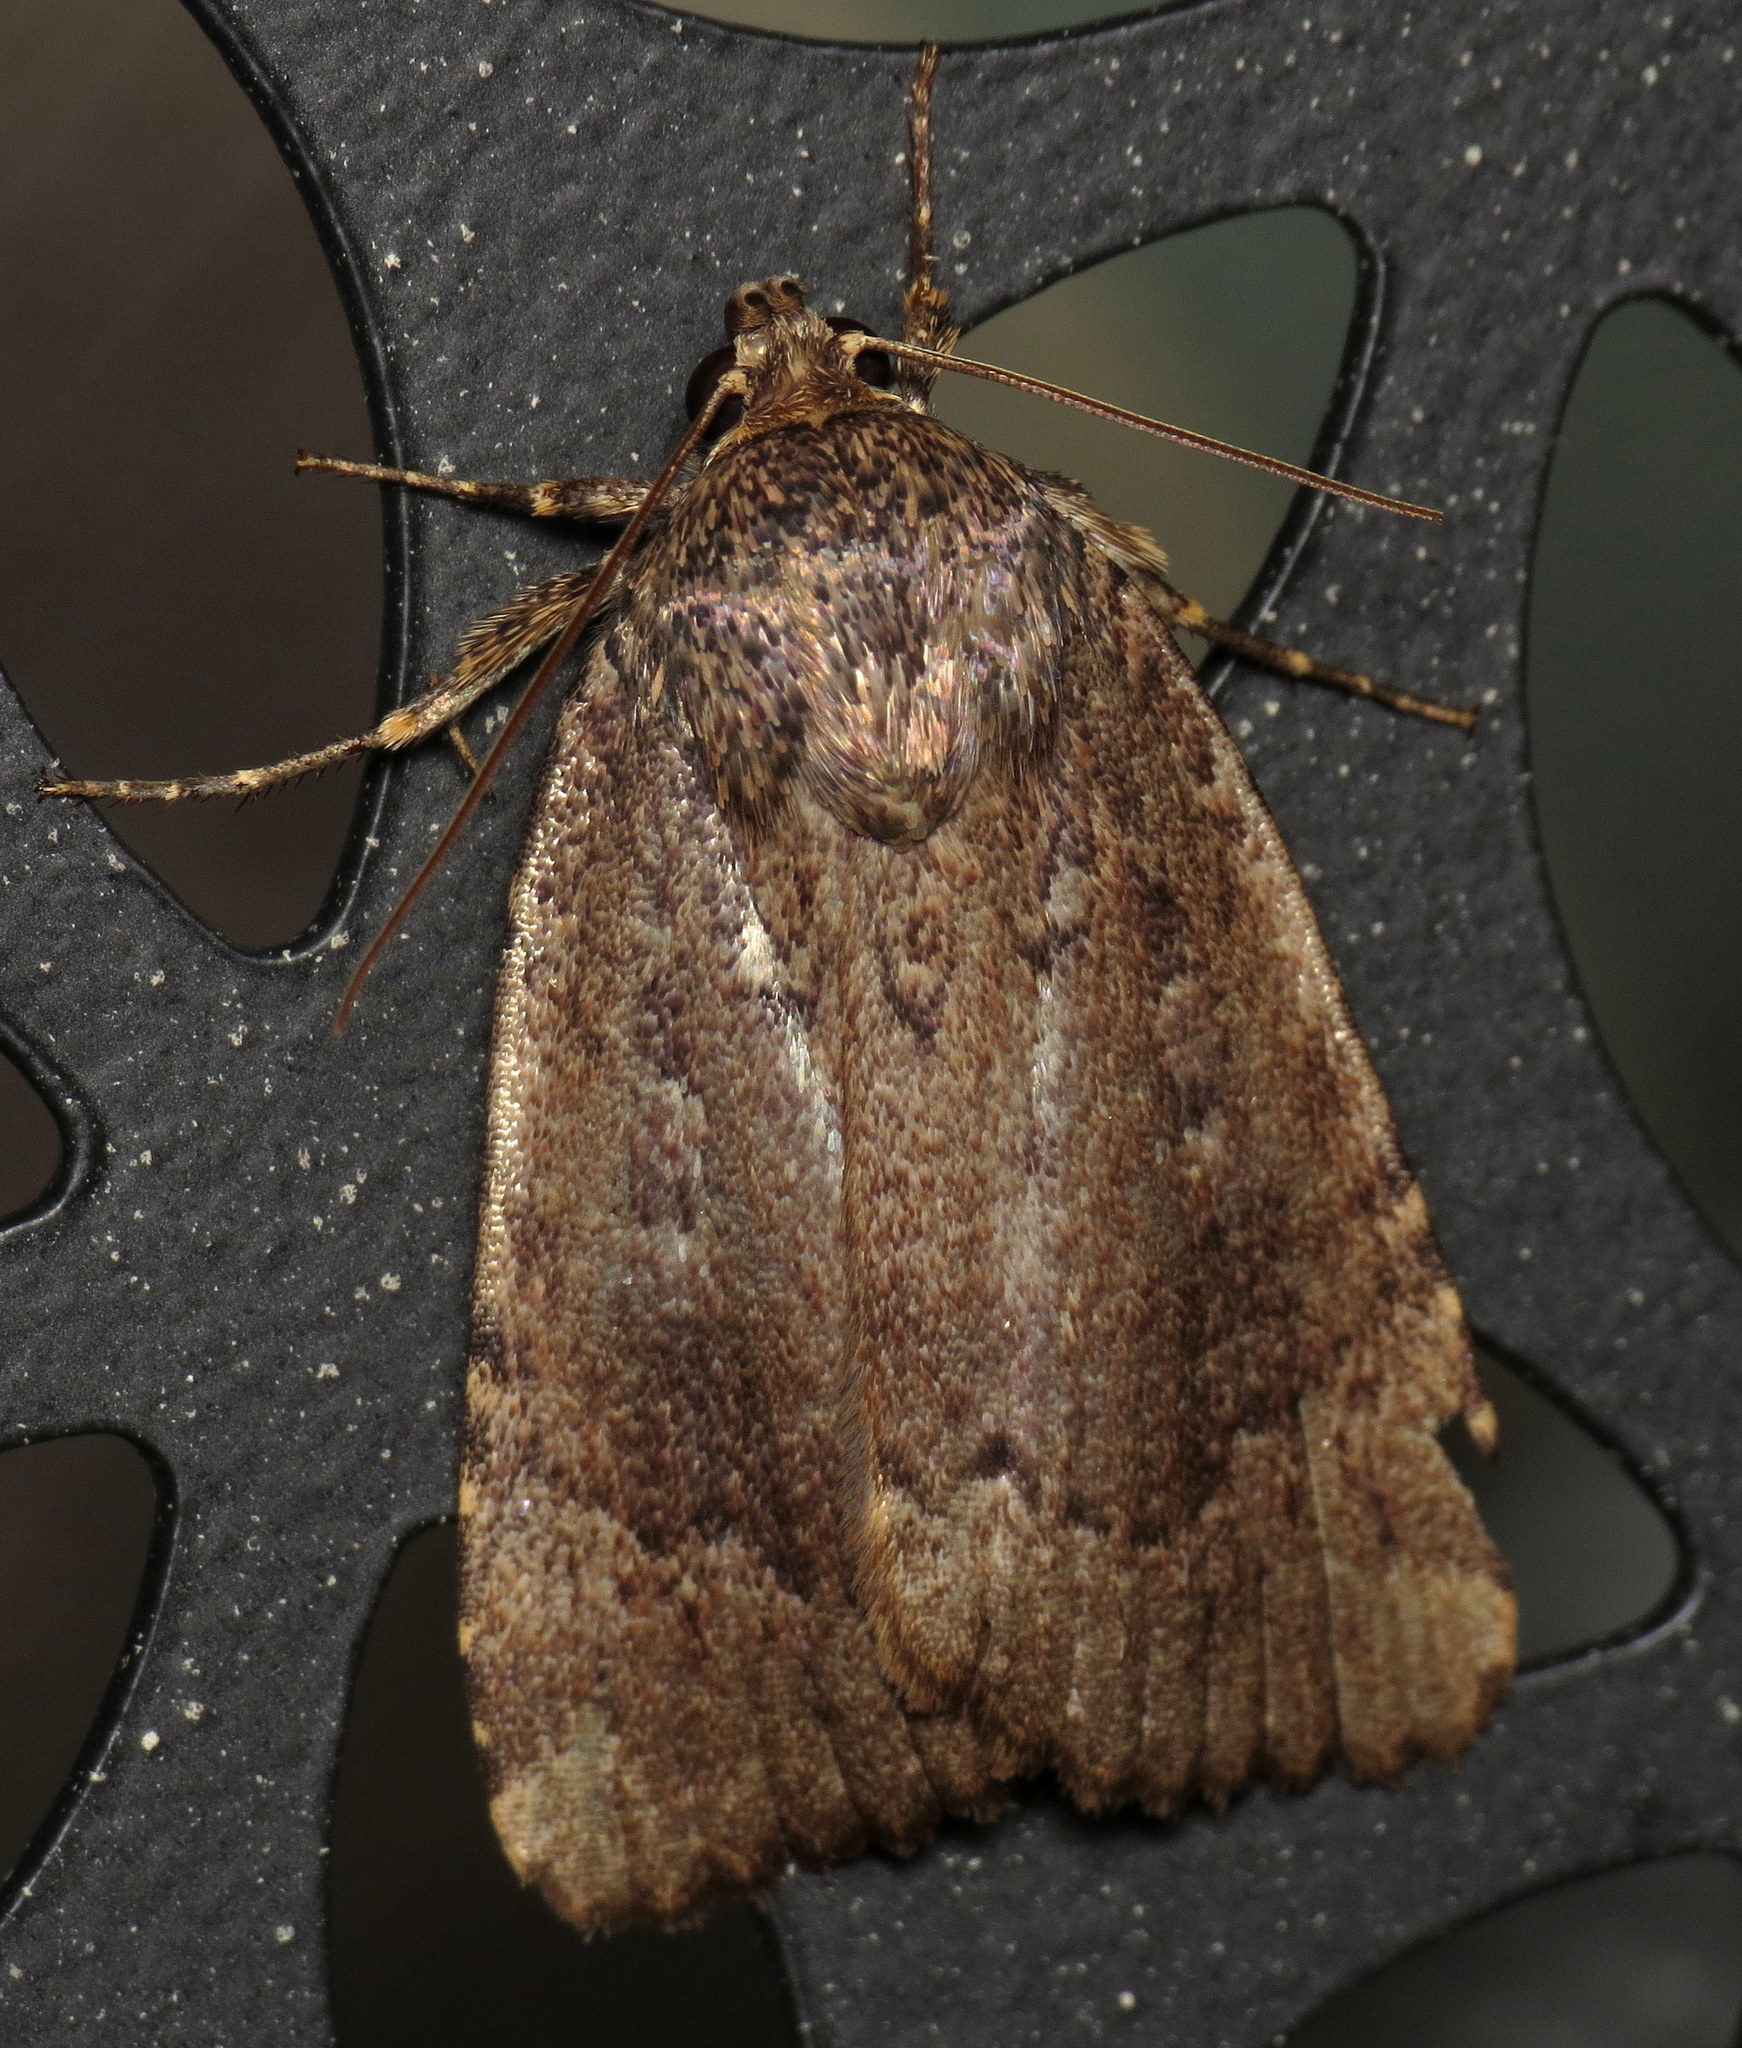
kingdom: Animalia
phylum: Arthropoda
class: Insecta
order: Lepidoptera
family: Noctuidae
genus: Amphipyra
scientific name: Amphipyra pyramidoides
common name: American copper underwing
